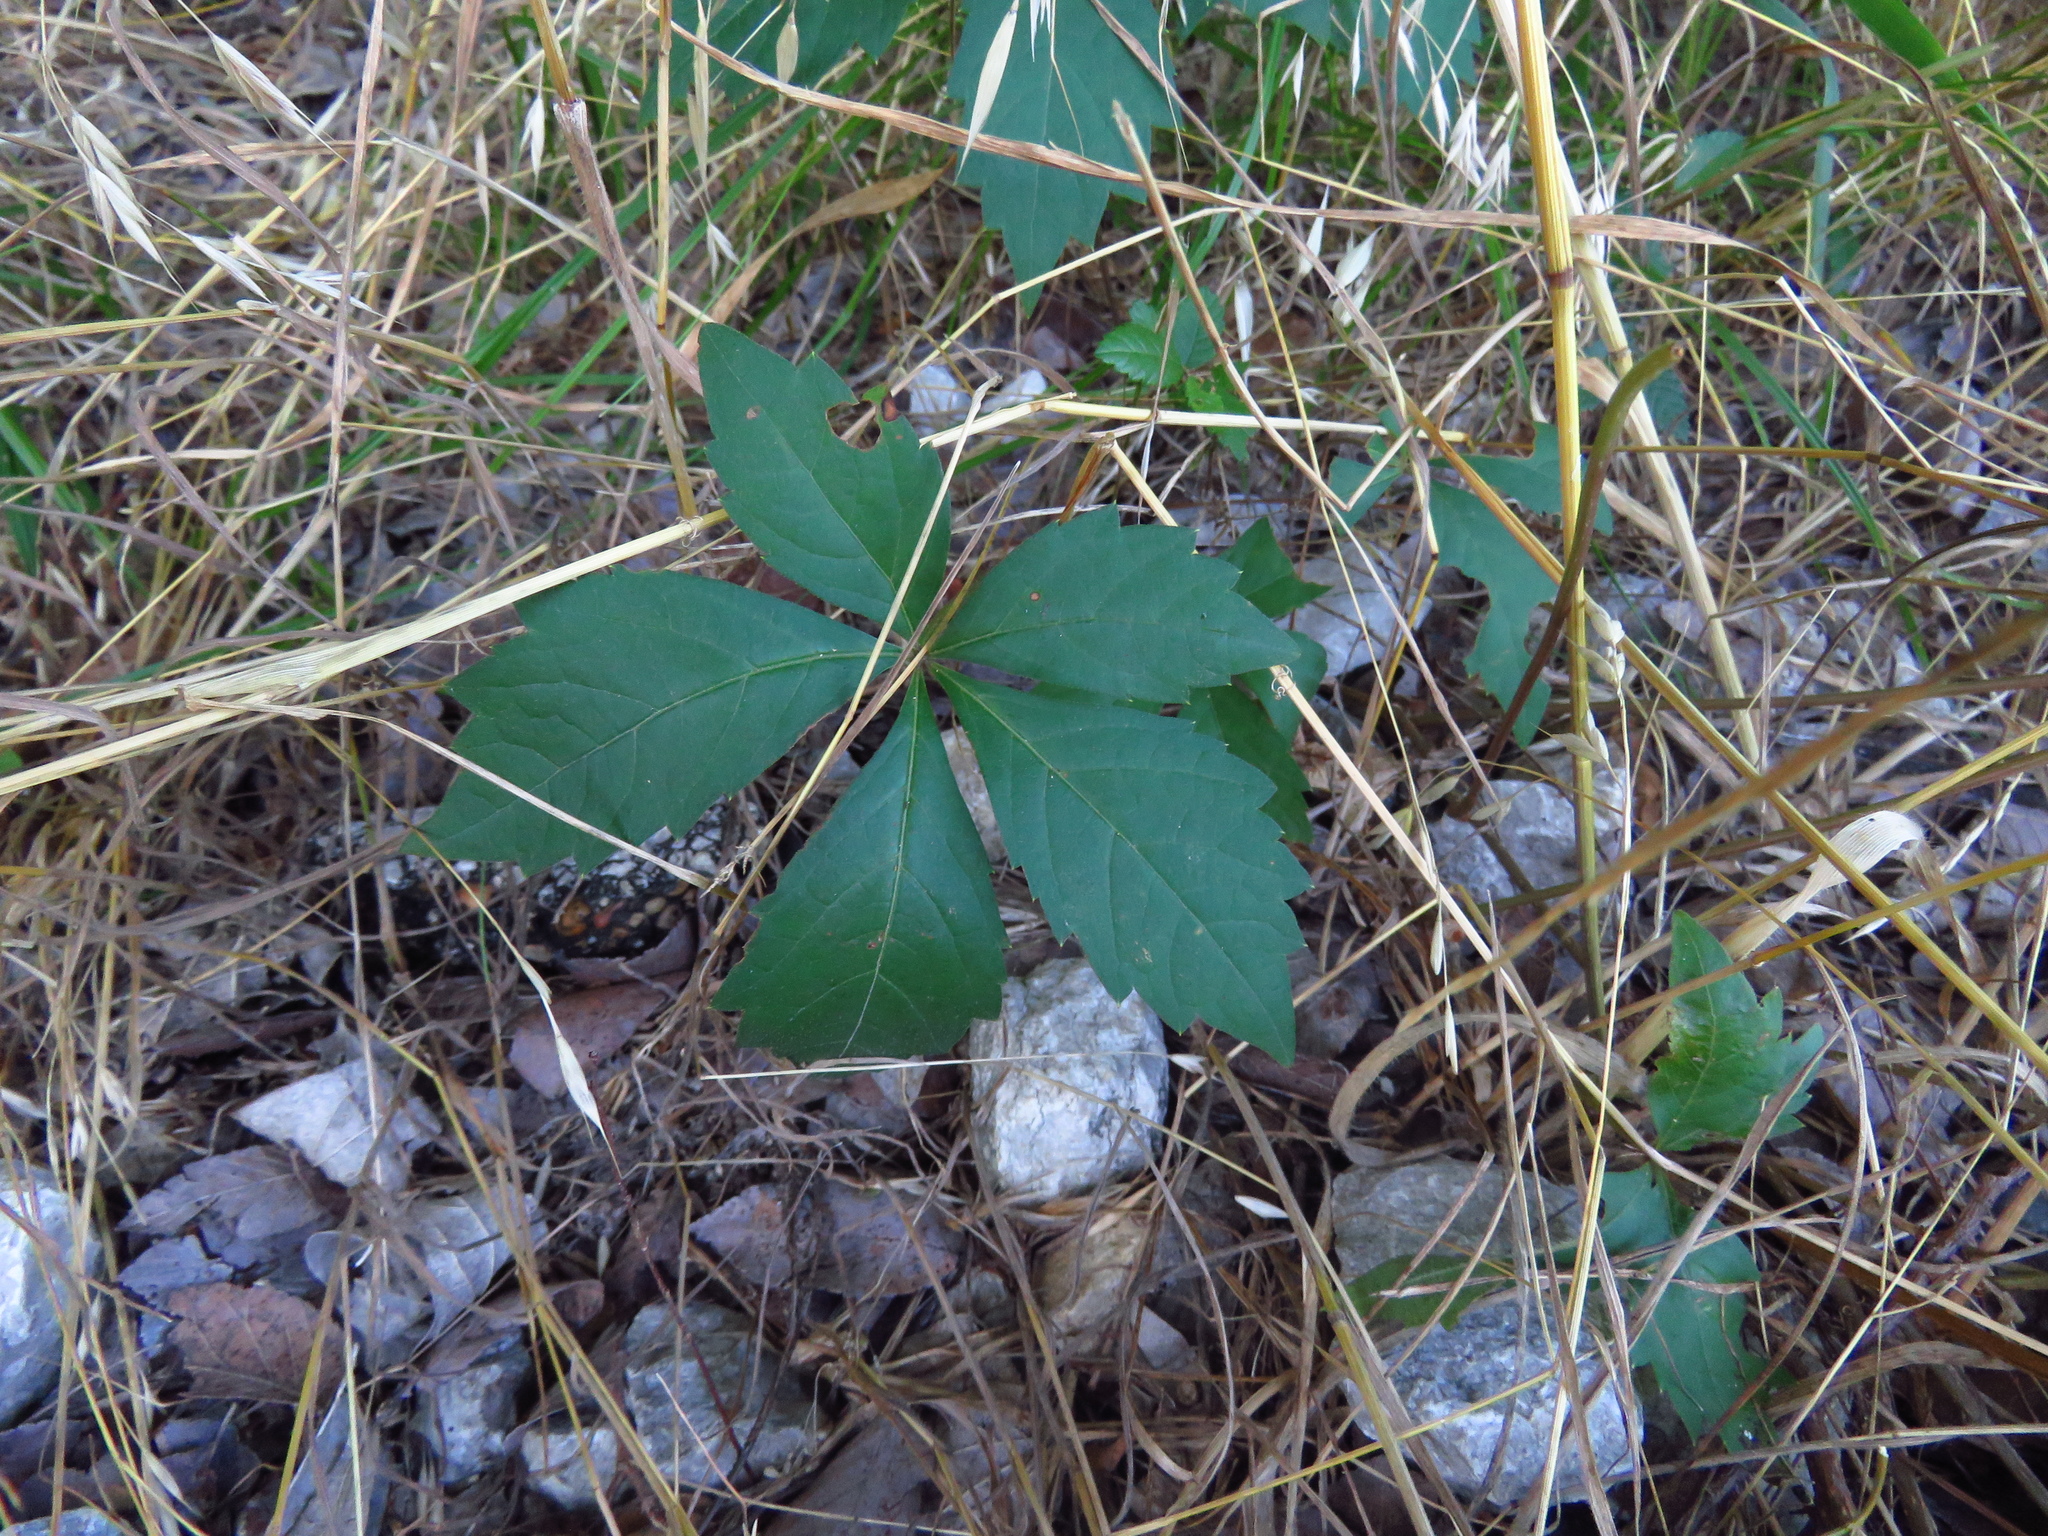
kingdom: Plantae
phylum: Tracheophyta
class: Magnoliopsida
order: Vitales
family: Vitaceae
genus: Parthenocissus
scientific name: Parthenocissus quinquefolia
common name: Virginia-creeper
